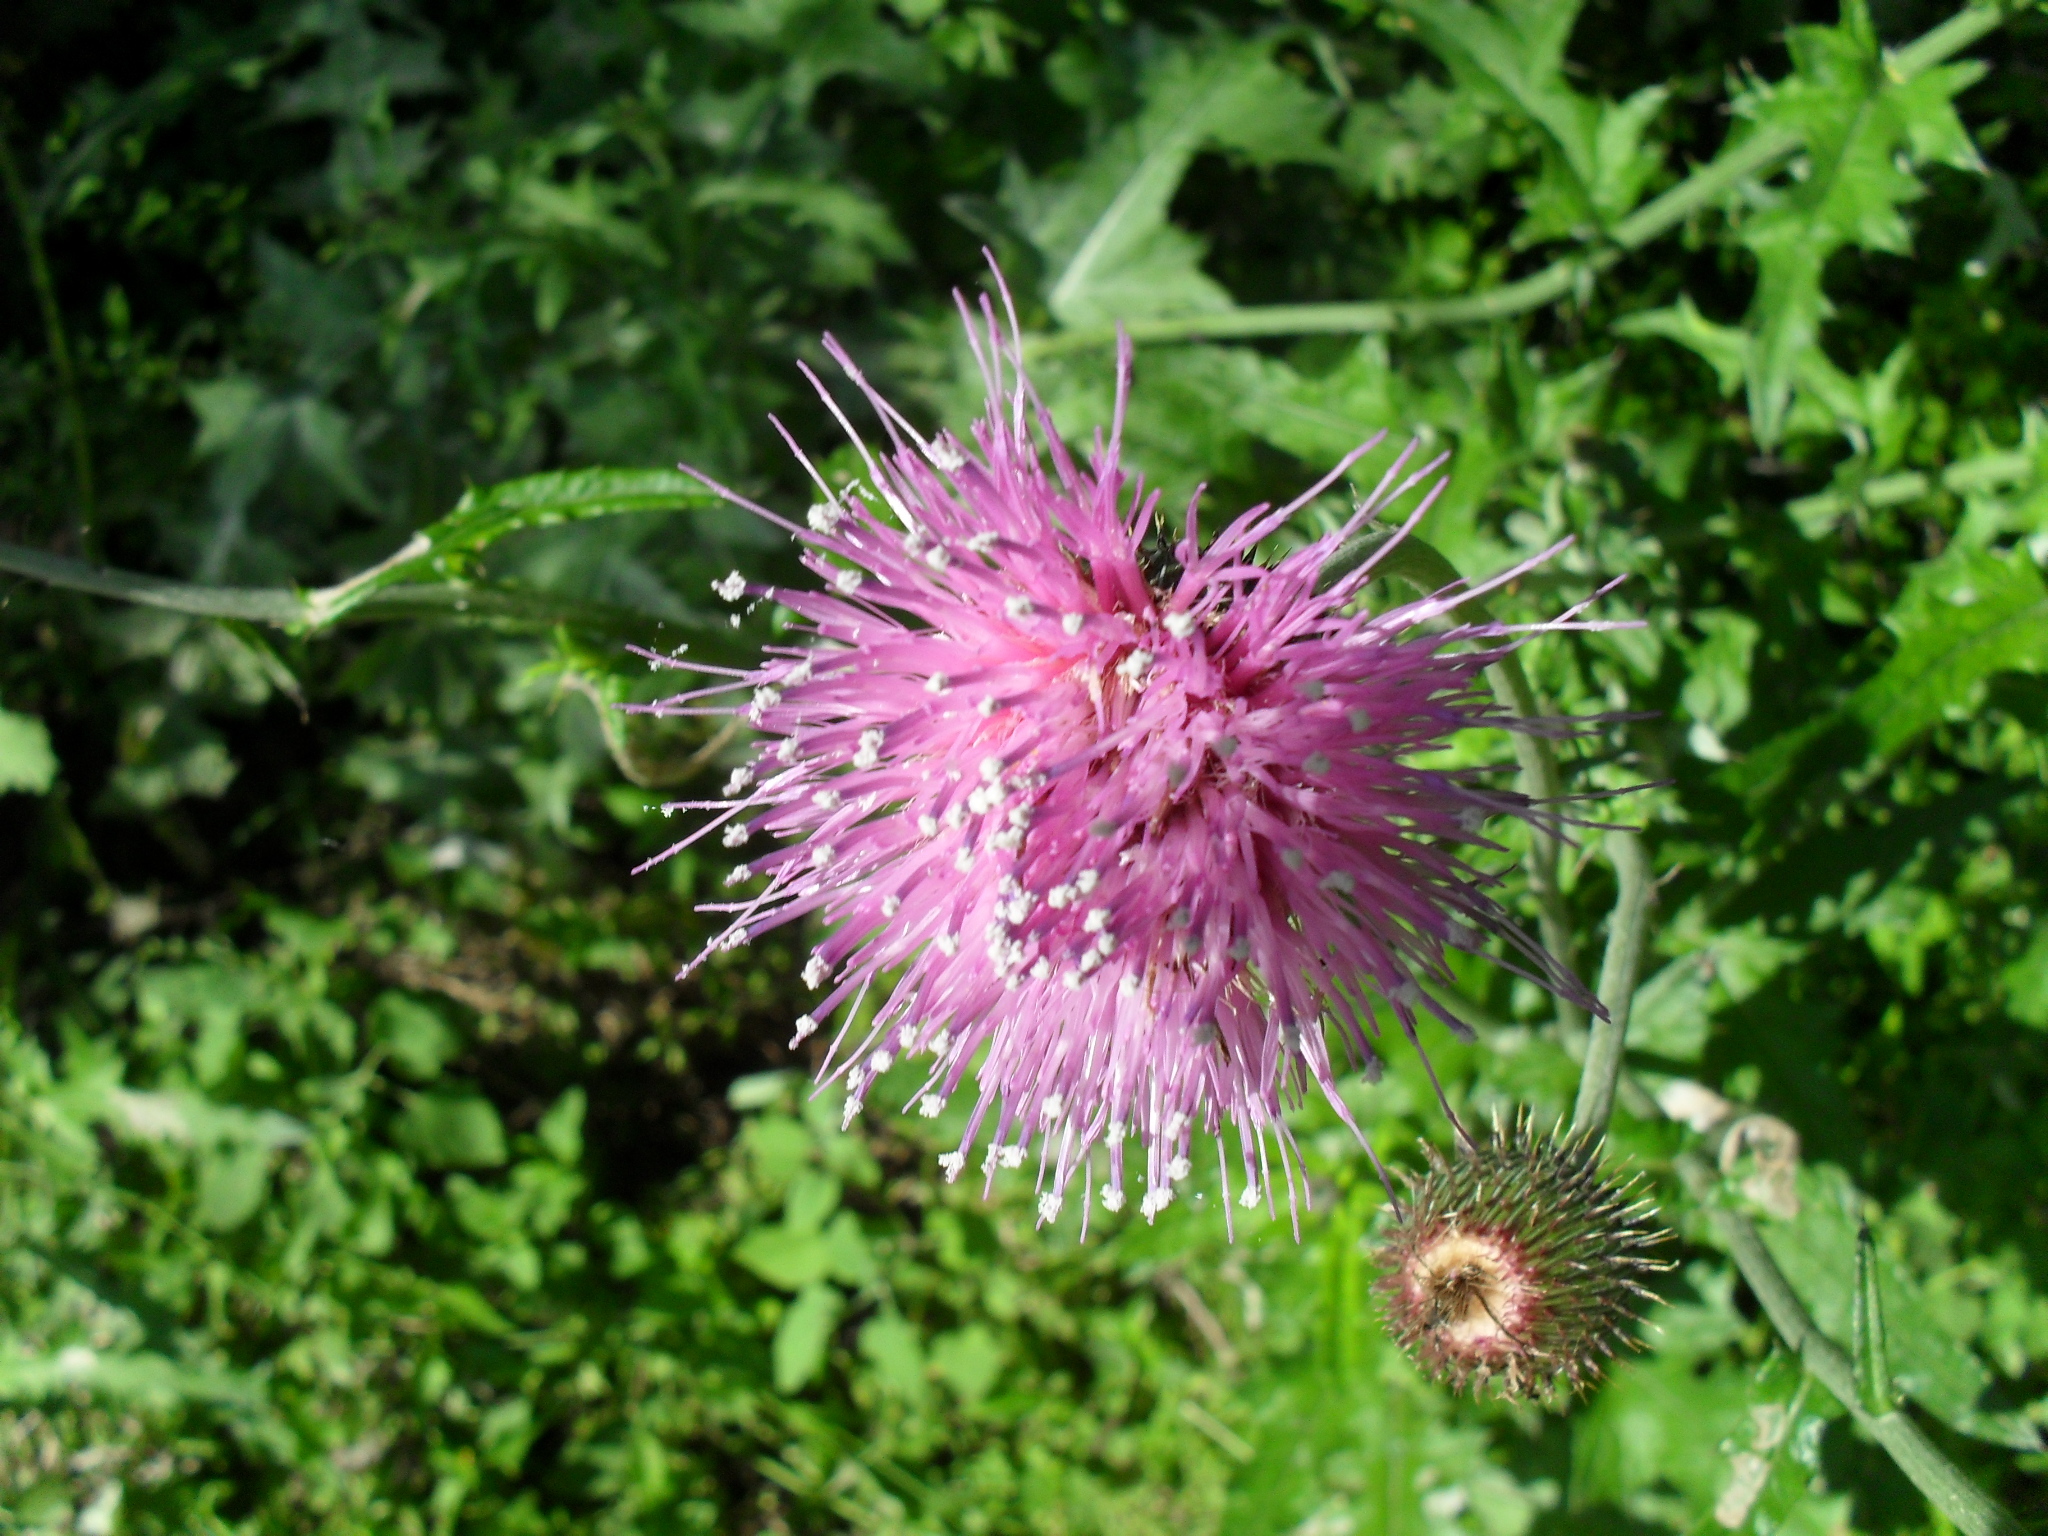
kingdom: Plantae
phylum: Tracheophyta
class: Magnoliopsida
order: Asterales
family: Asteraceae
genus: Cirsium
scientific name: Cirsium texanum
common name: Texas purple thistle
